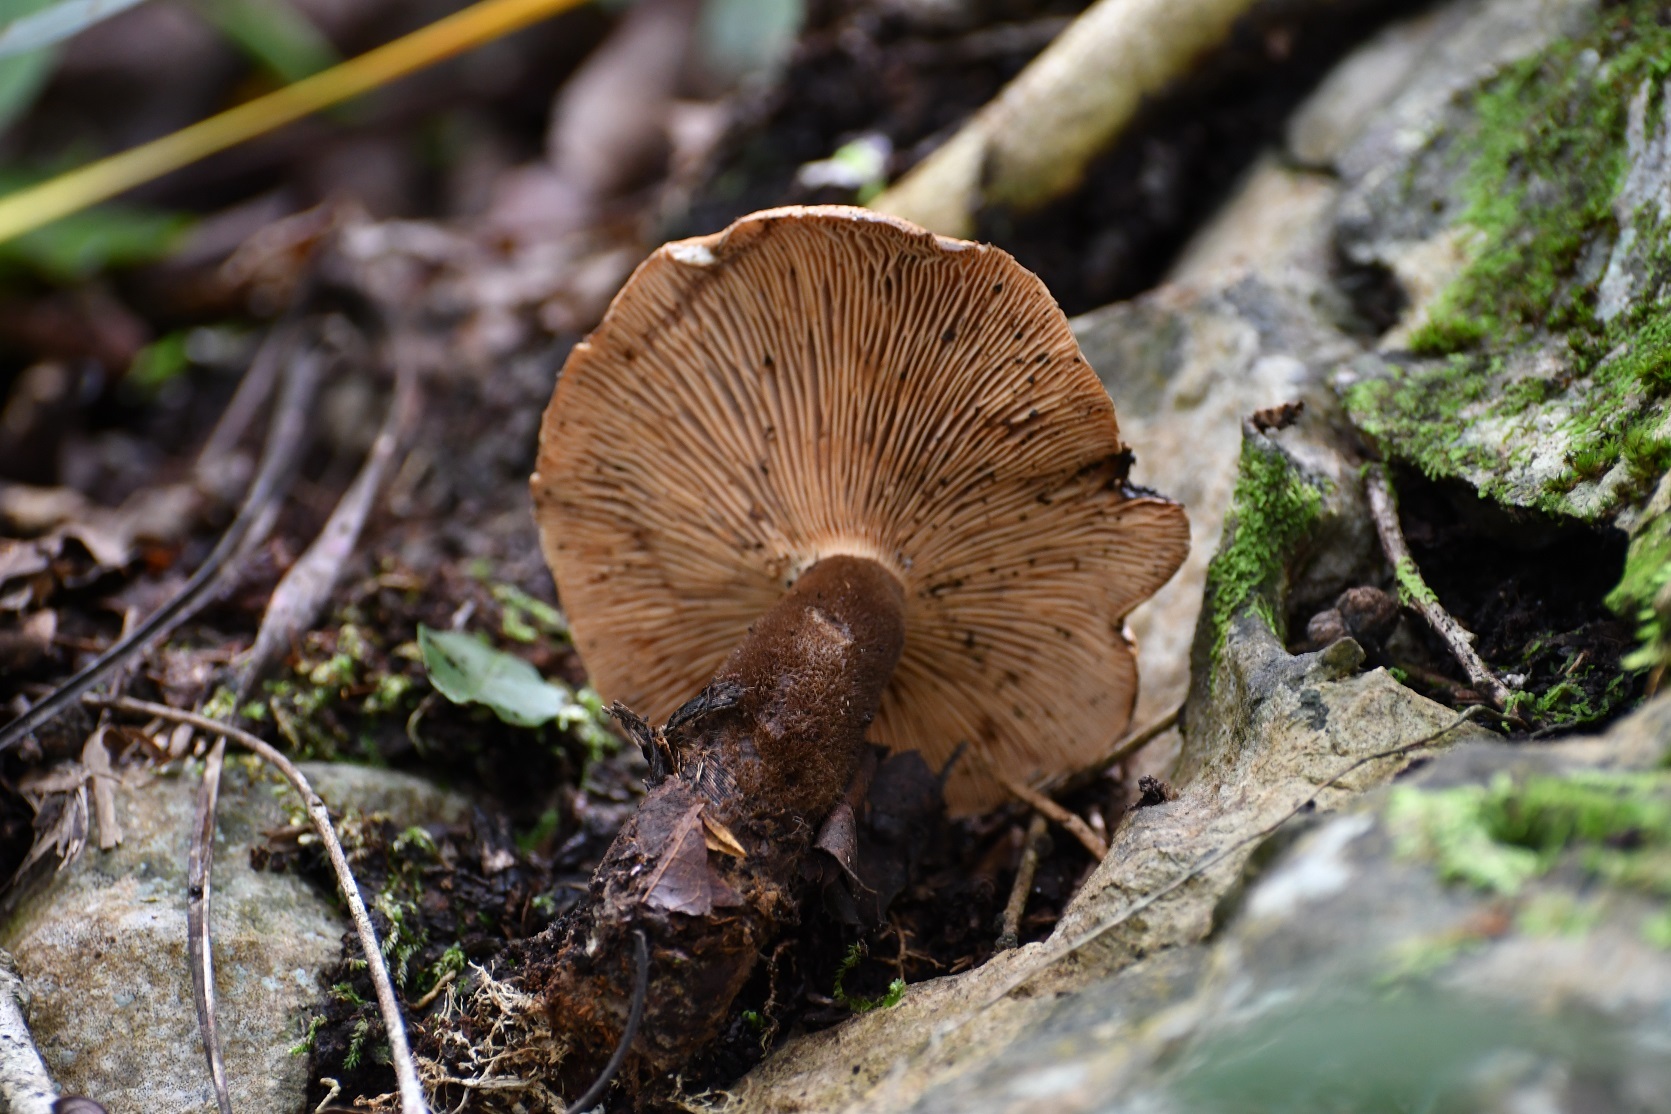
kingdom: Fungi
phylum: Basidiomycota
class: Agaricomycetes
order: Boletales
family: Tapinellaceae
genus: Tapinella
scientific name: Tapinella atrotomentosa
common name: Velvet rollrim
